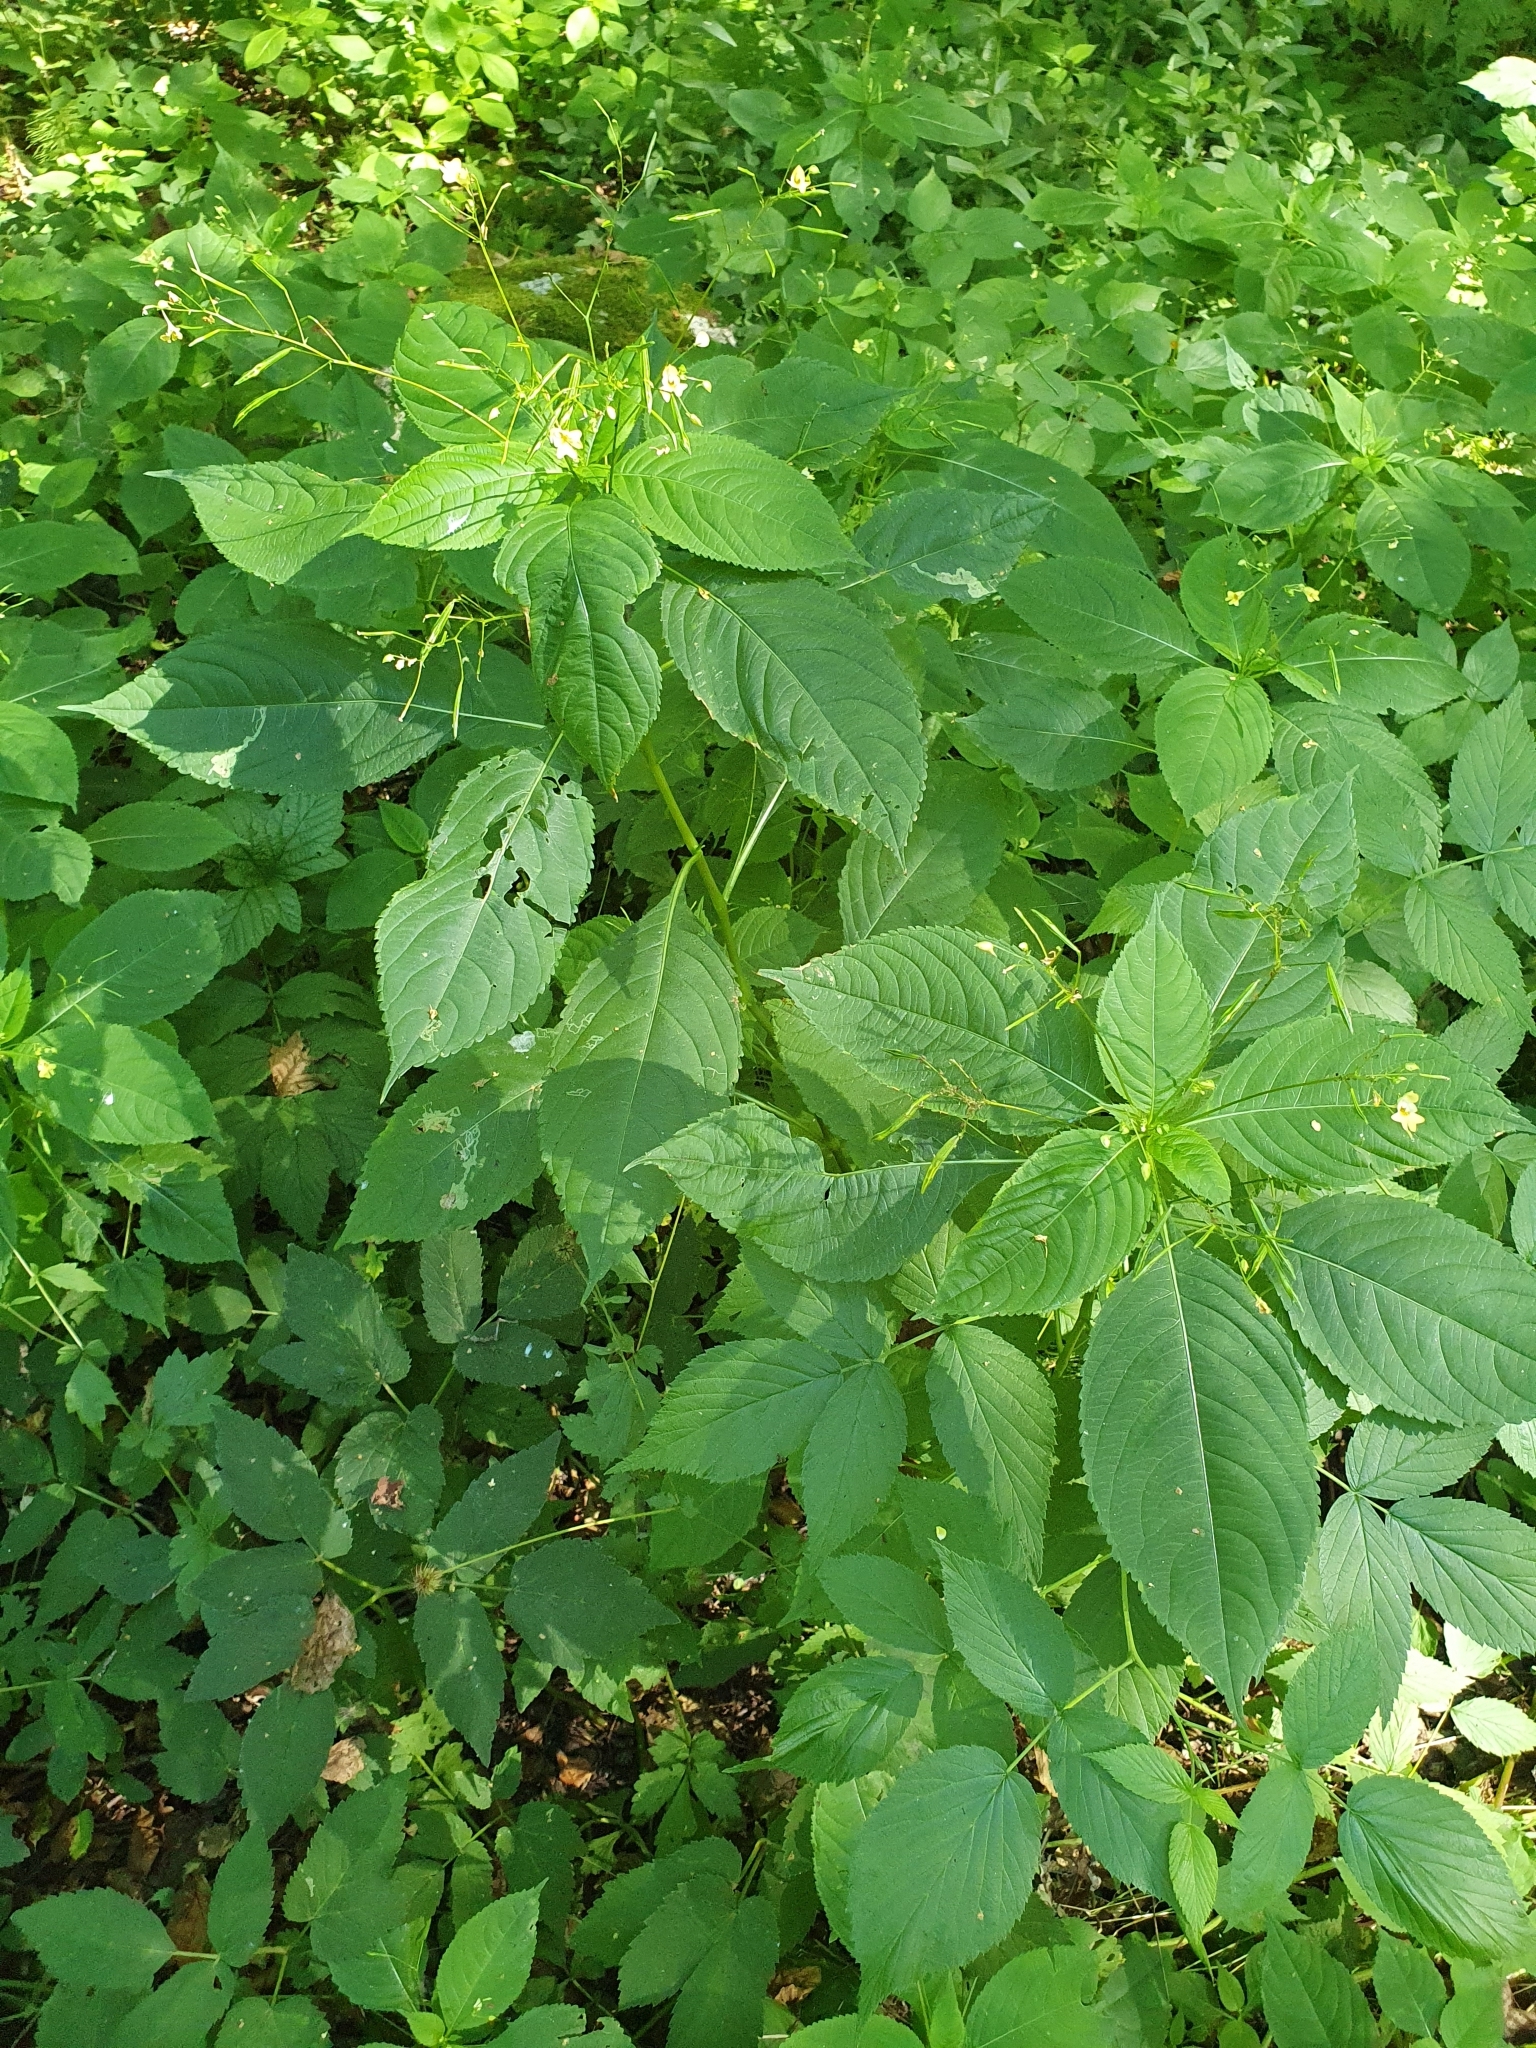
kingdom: Plantae
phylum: Tracheophyta
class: Magnoliopsida
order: Ericales
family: Balsaminaceae
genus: Impatiens
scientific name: Impatiens parviflora
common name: Small balsam
